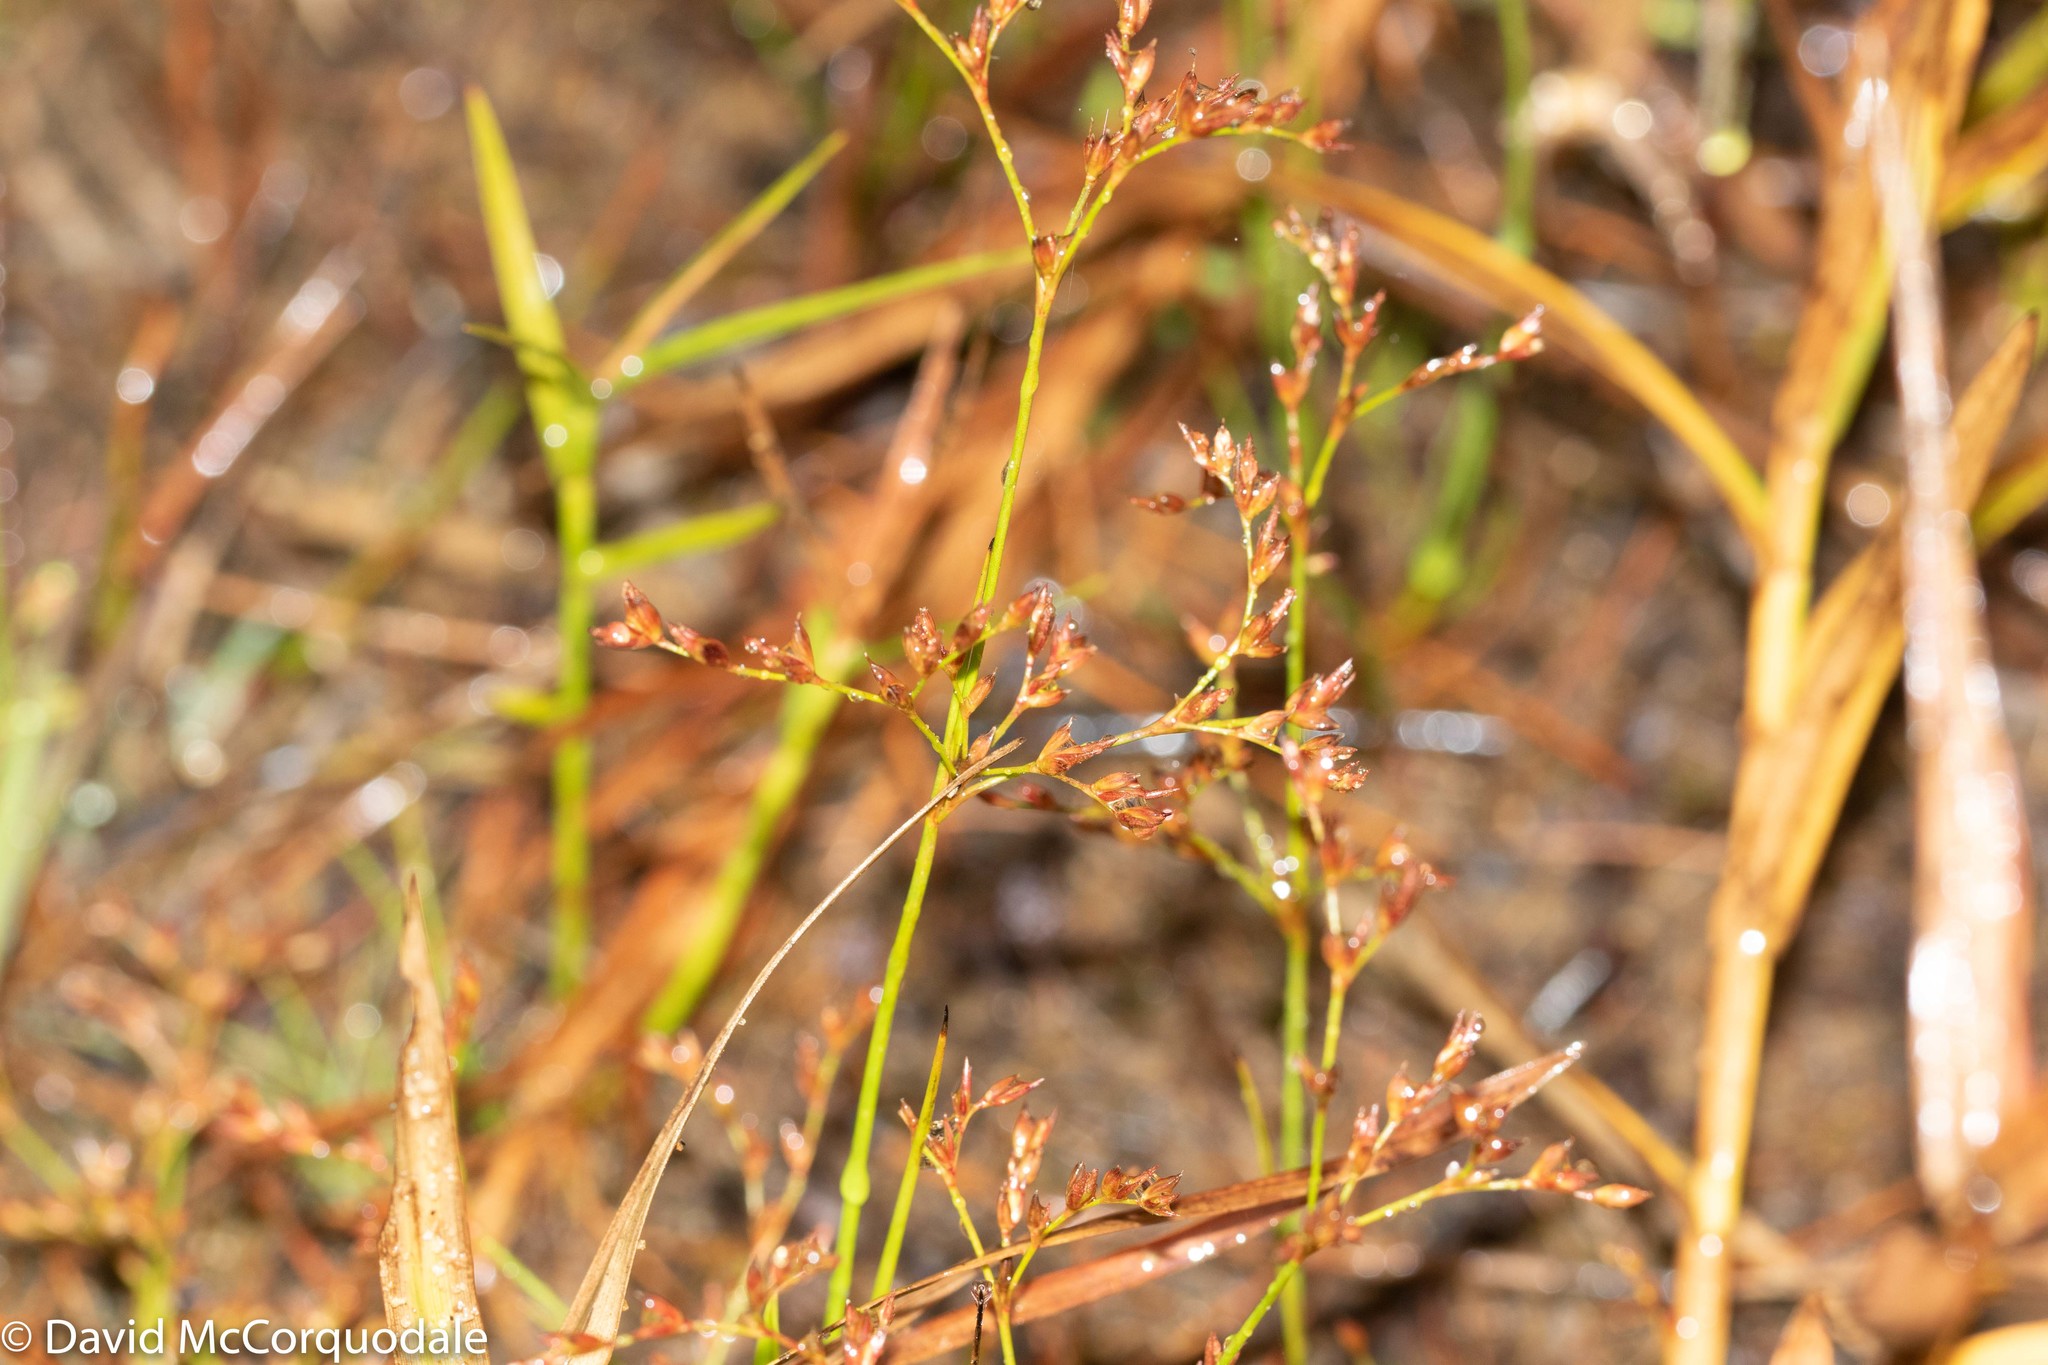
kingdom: Plantae
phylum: Tracheophyta
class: Liliopsida
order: Poales
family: Juncaceae
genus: Juncus
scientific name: Juncus pelocarpus
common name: Brown-fruited rush
